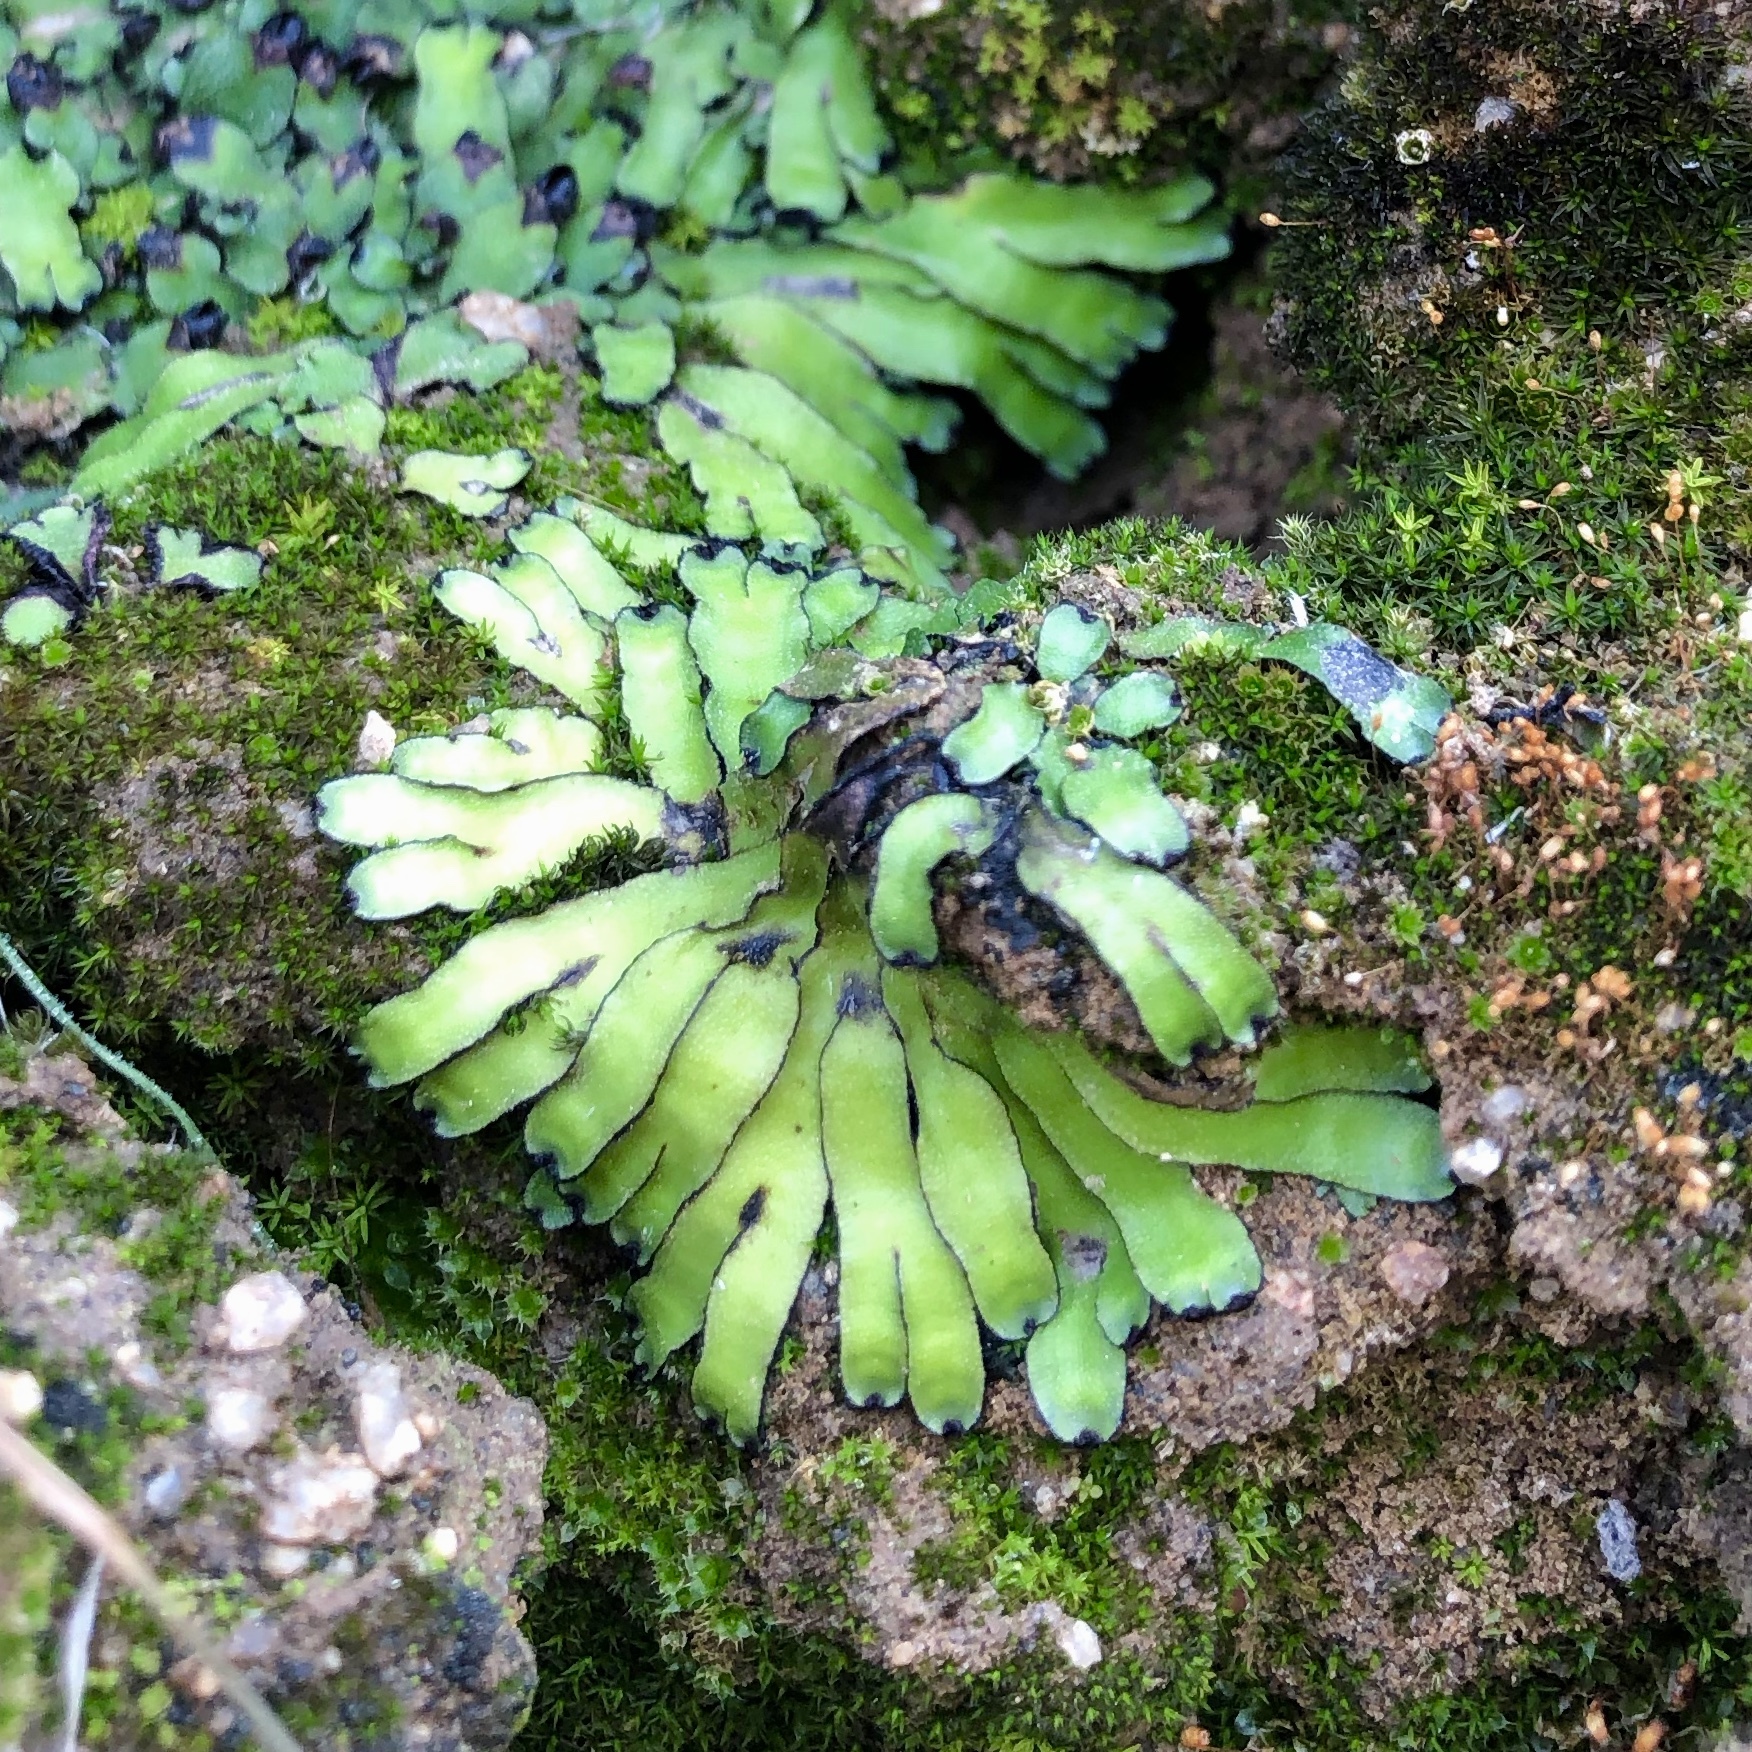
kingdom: Plantae
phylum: Marchantiophyta
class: Marchantiopsida
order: Marchantiales
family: Targioniaceae
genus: Targionia
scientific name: Targionia hypophylla
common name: Orobus-seed liverwort
